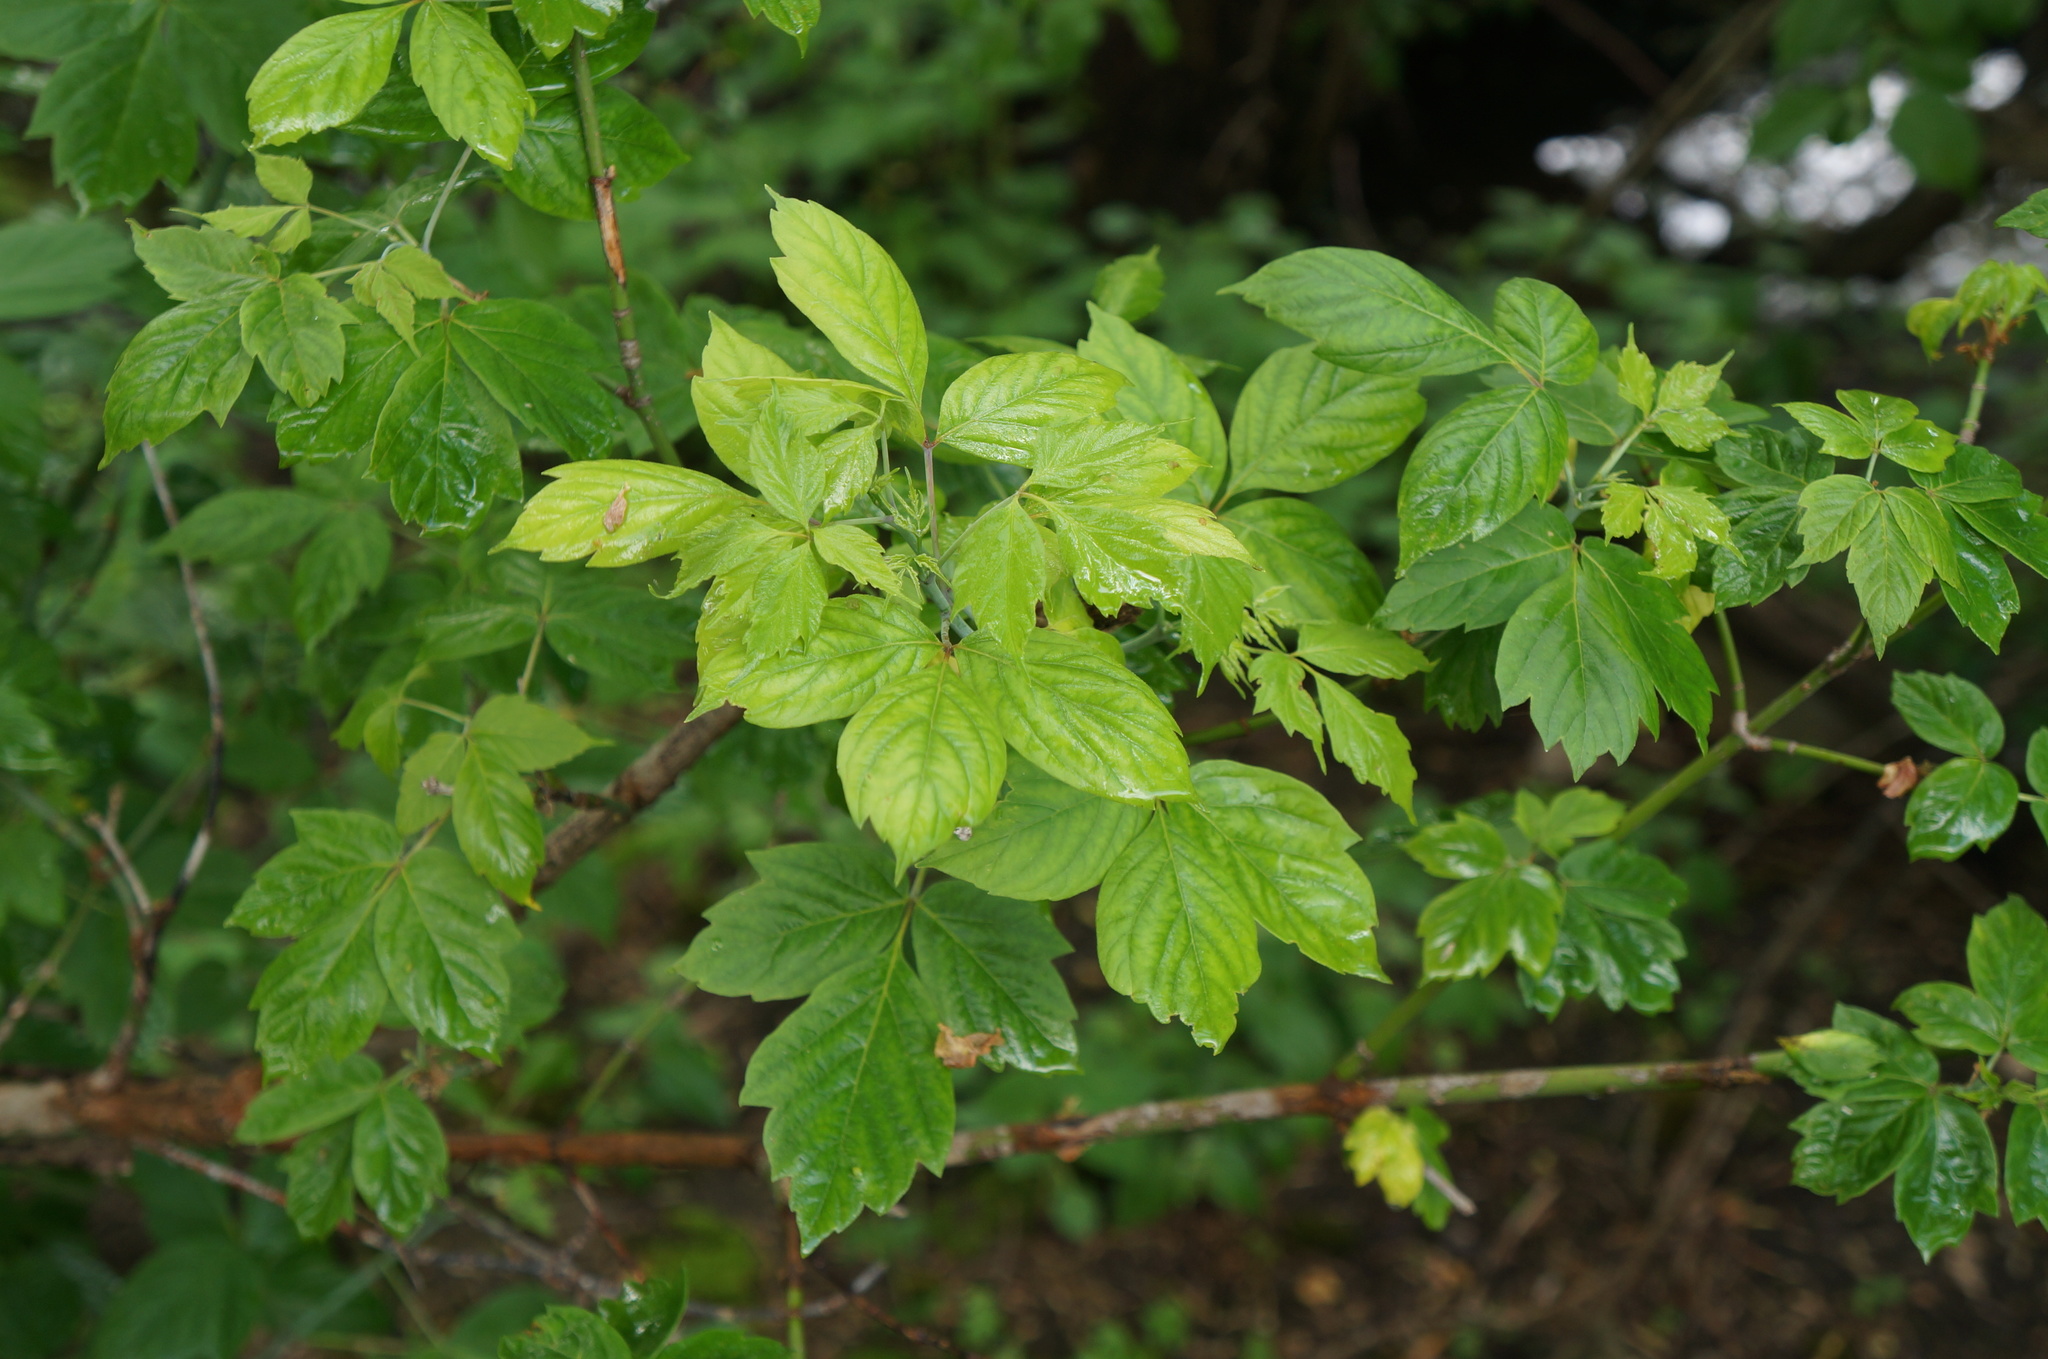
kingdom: Plantae
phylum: Tracheophyta
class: Magnoliopsida
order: Sapindales
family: Sapindaceae
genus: Acer
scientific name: Acer negundo
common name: Ashleaf maple
